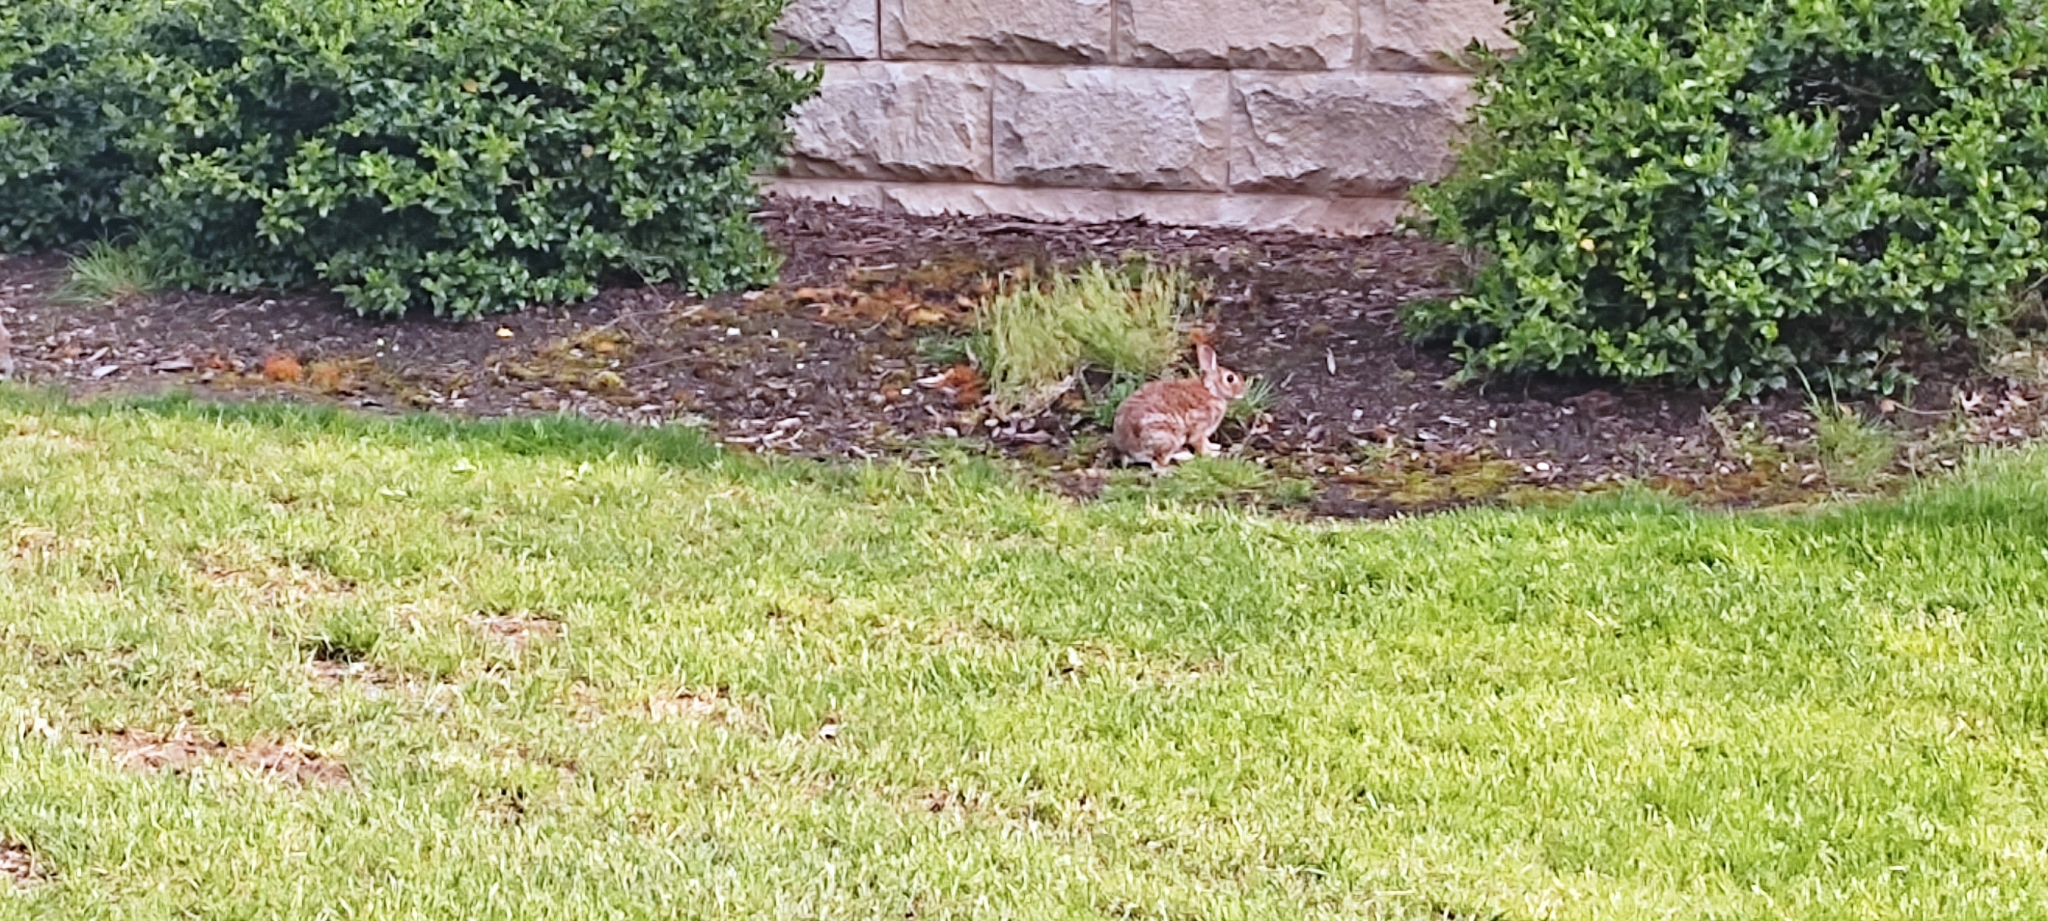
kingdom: Animalia
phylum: Chordata
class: Mammalia
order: Lagomorpha
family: Leporidae
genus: Sylvilagus
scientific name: Sylvilagus floridanus
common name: Eastern cottontail
